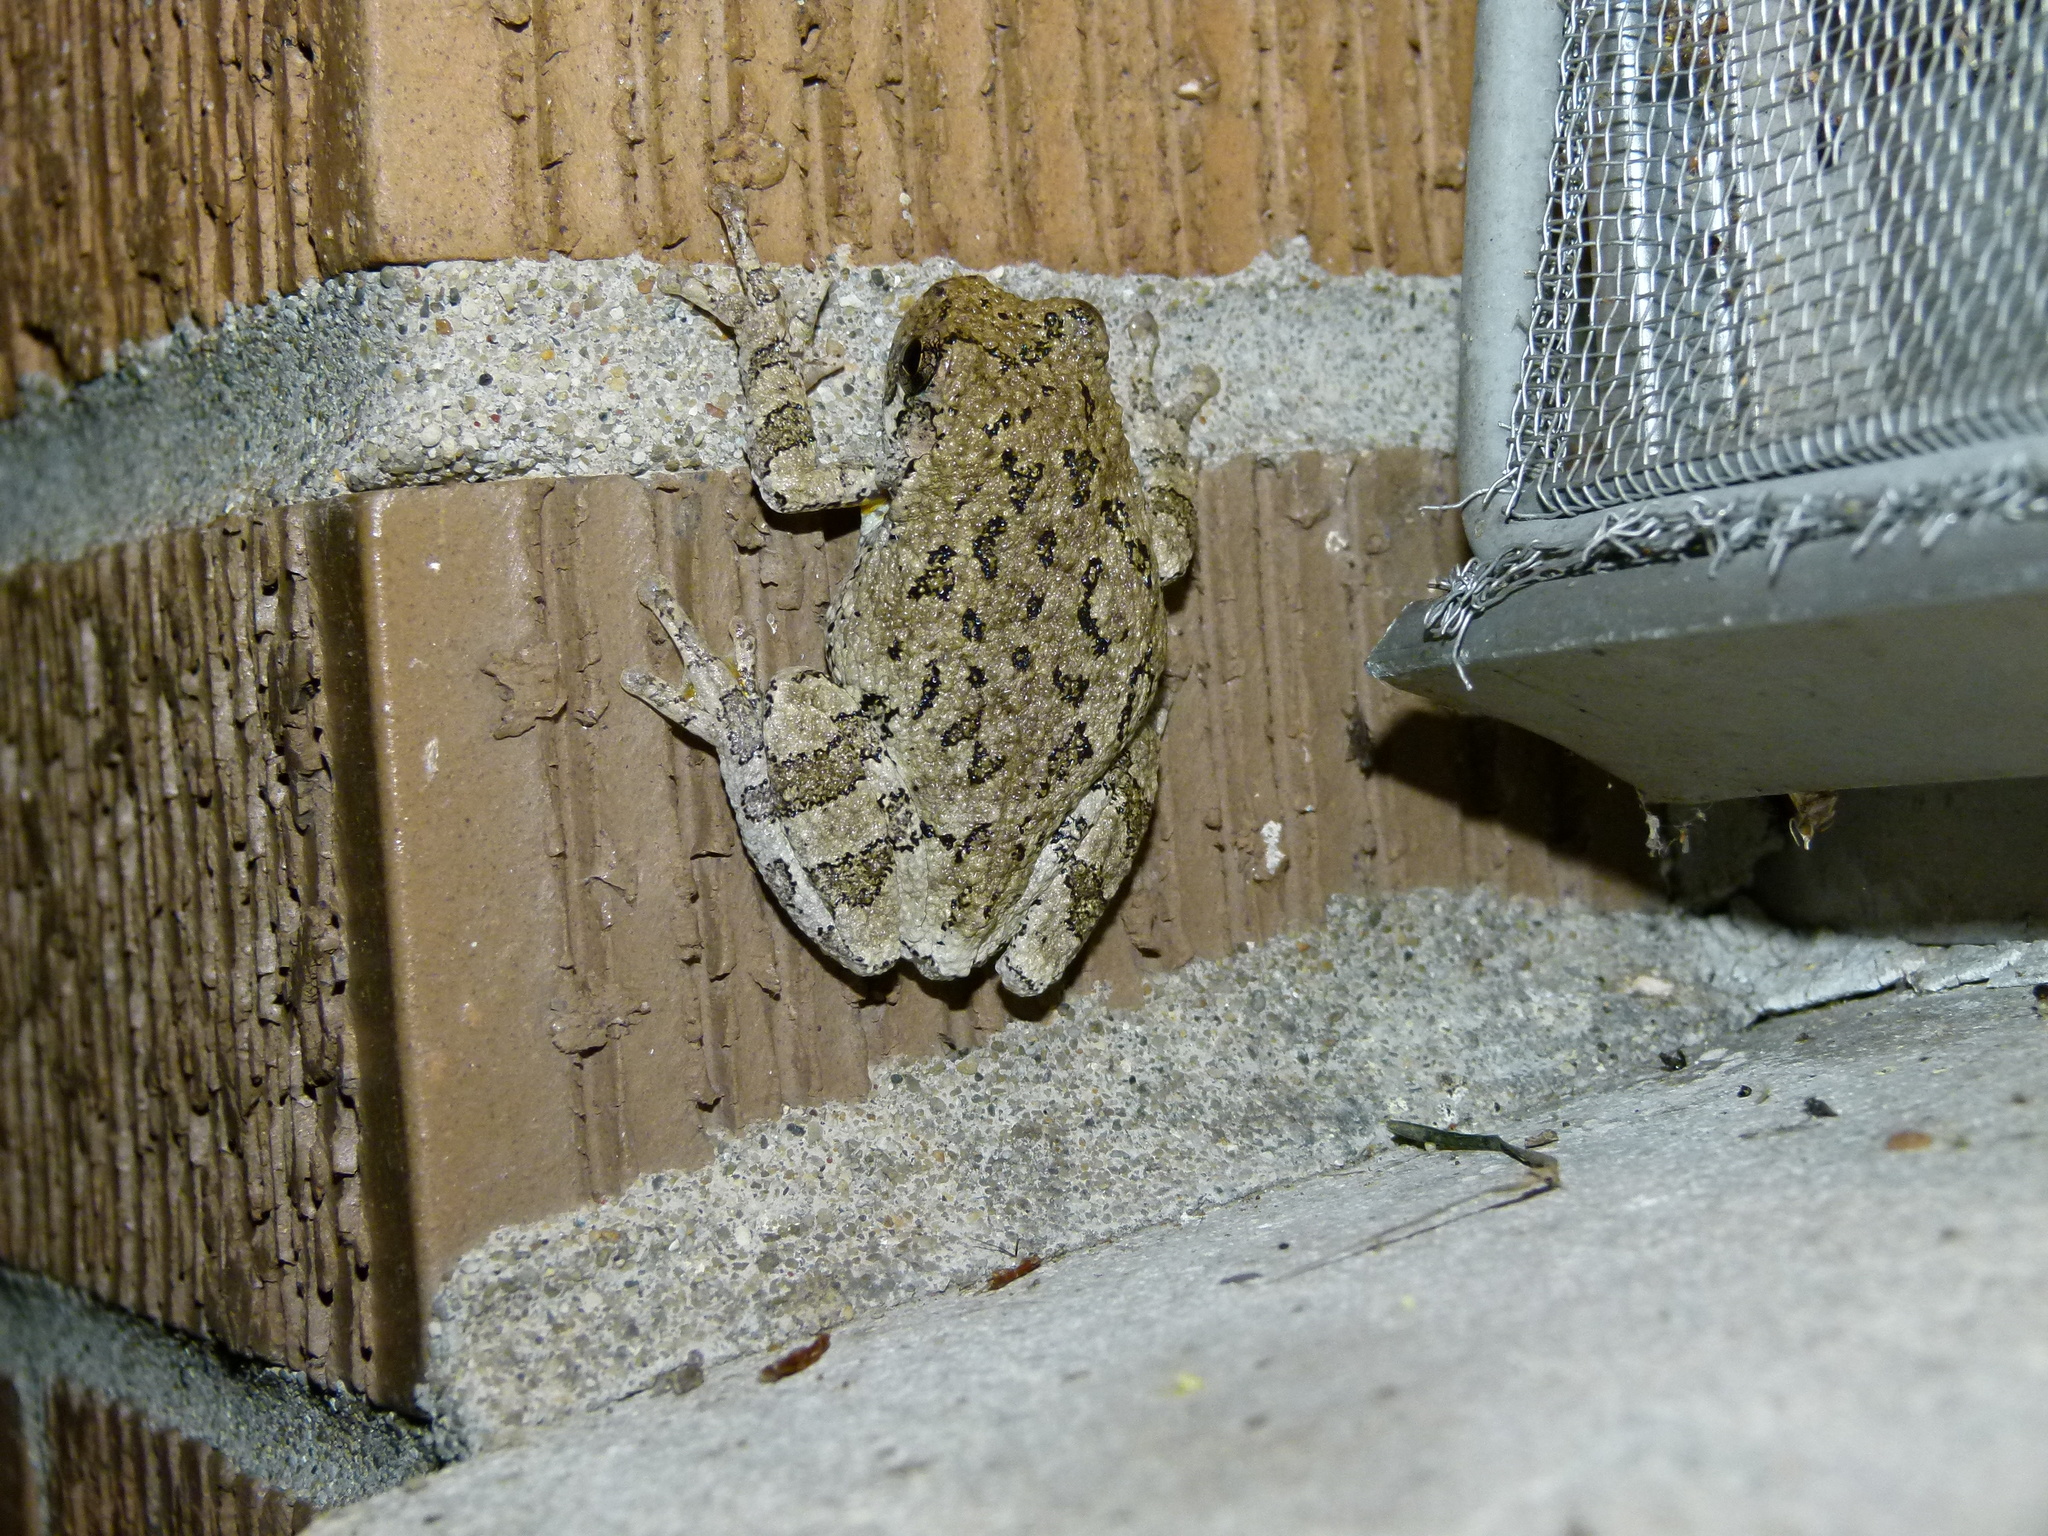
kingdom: Animalia
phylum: Chordata
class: Amphibia
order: Anura
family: Hylidae
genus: Hyla
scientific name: Hyla
